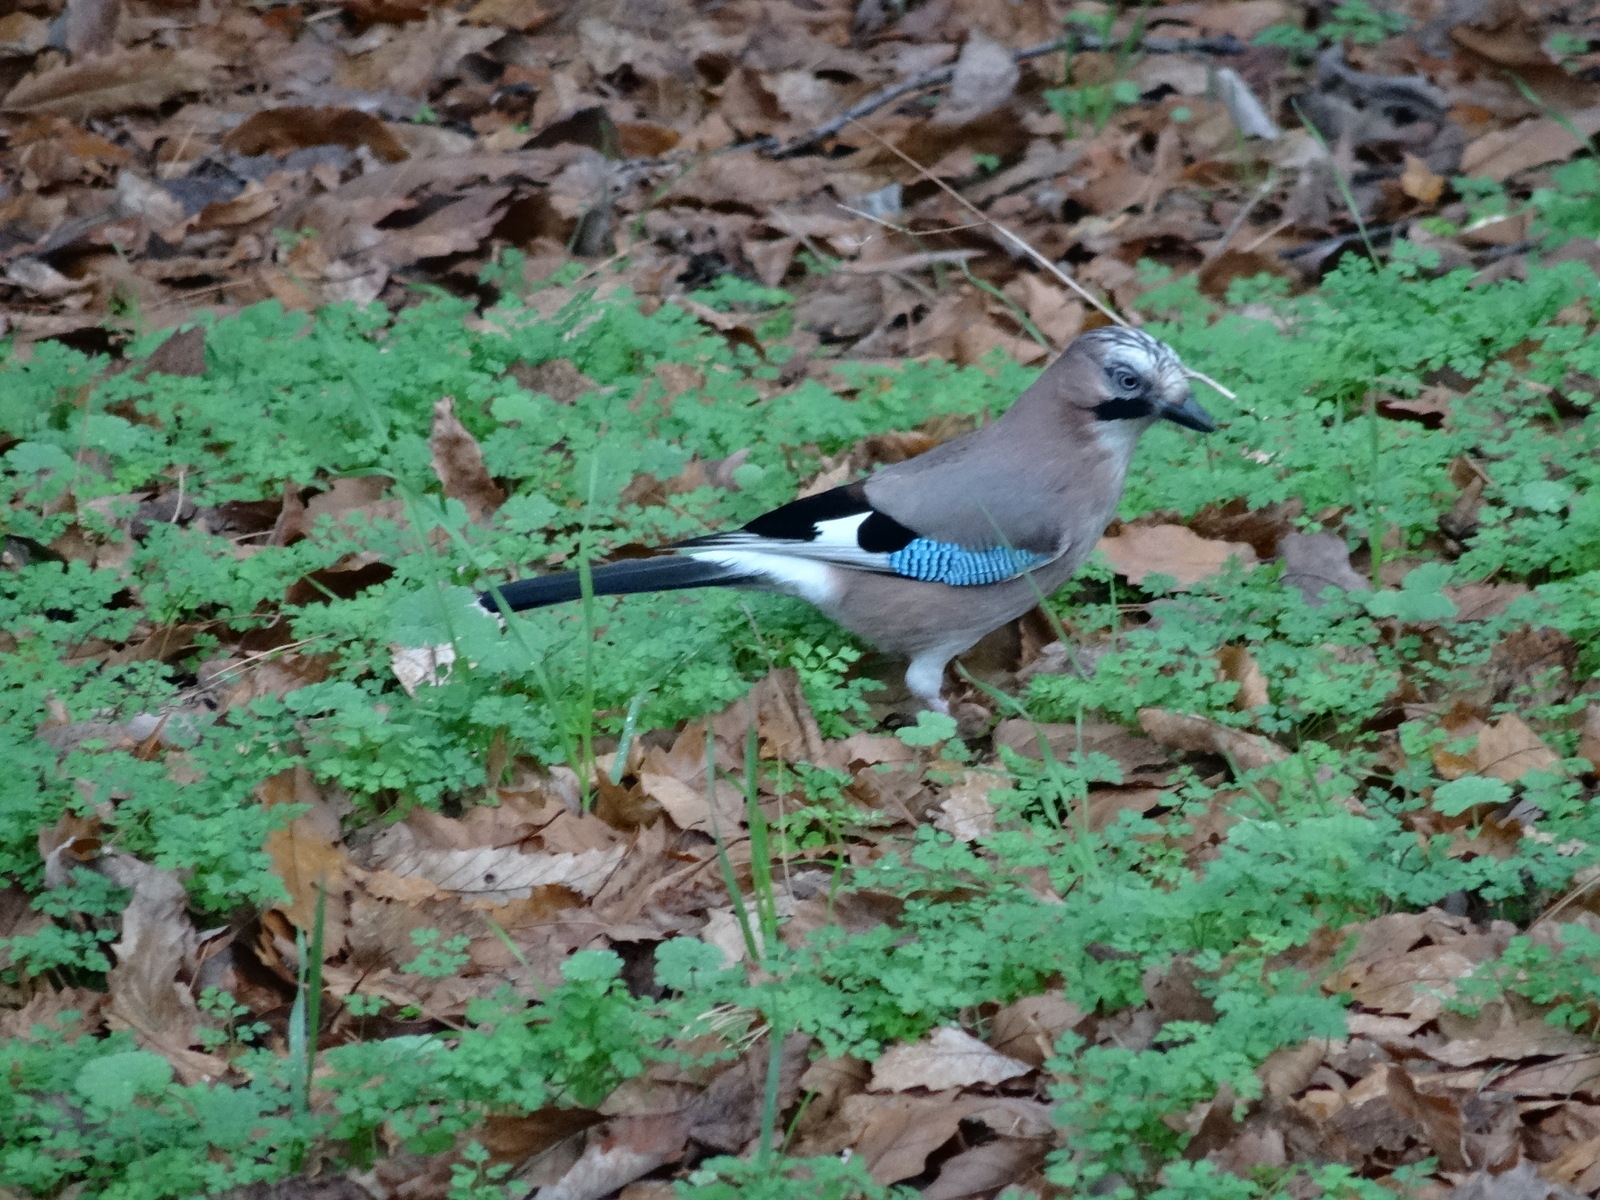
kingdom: Animalia
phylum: Chordata
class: Aves
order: Passeriformes
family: Corvidae
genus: Garrulus
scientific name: Garrulus glandarius
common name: Eurasian jay
